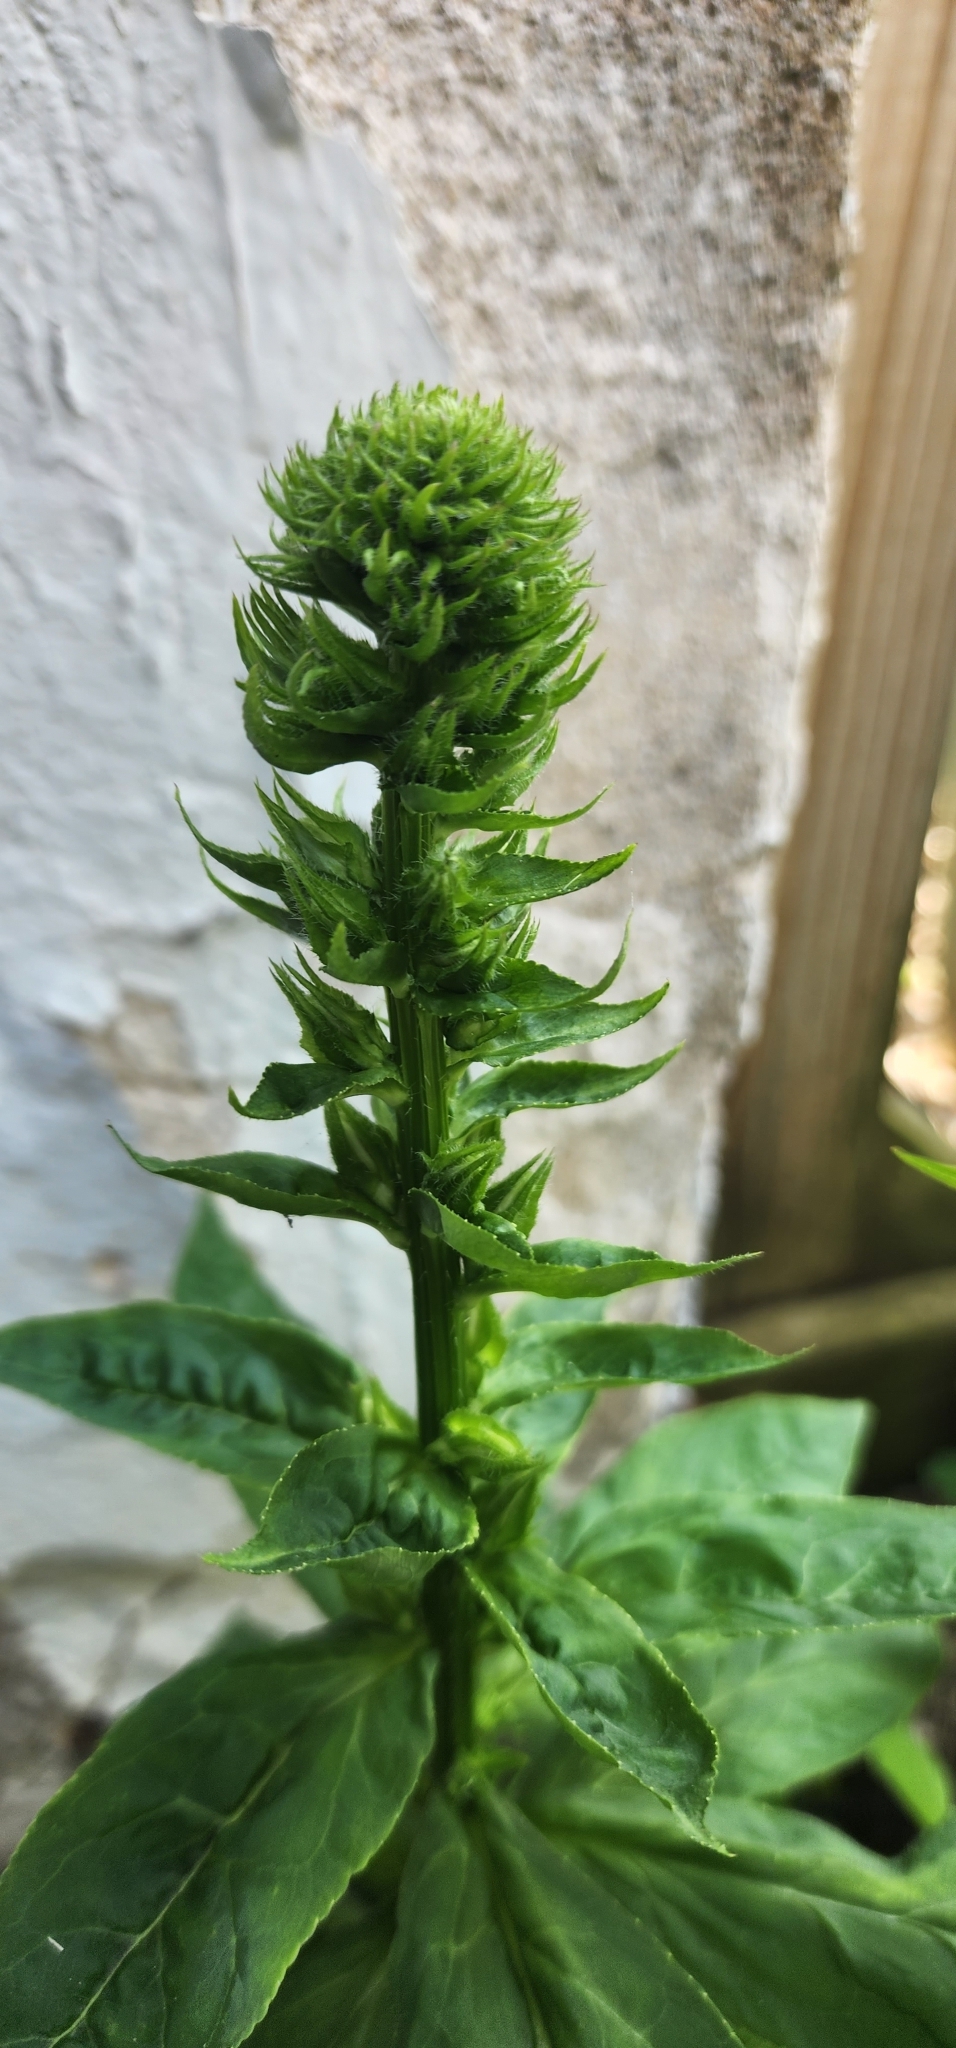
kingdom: Bacteria
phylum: Firmicutes
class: Bacilli
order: Acholeplasmatales
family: Acholeplasmataceae
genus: Phytoplasma
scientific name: Phytoplasma
